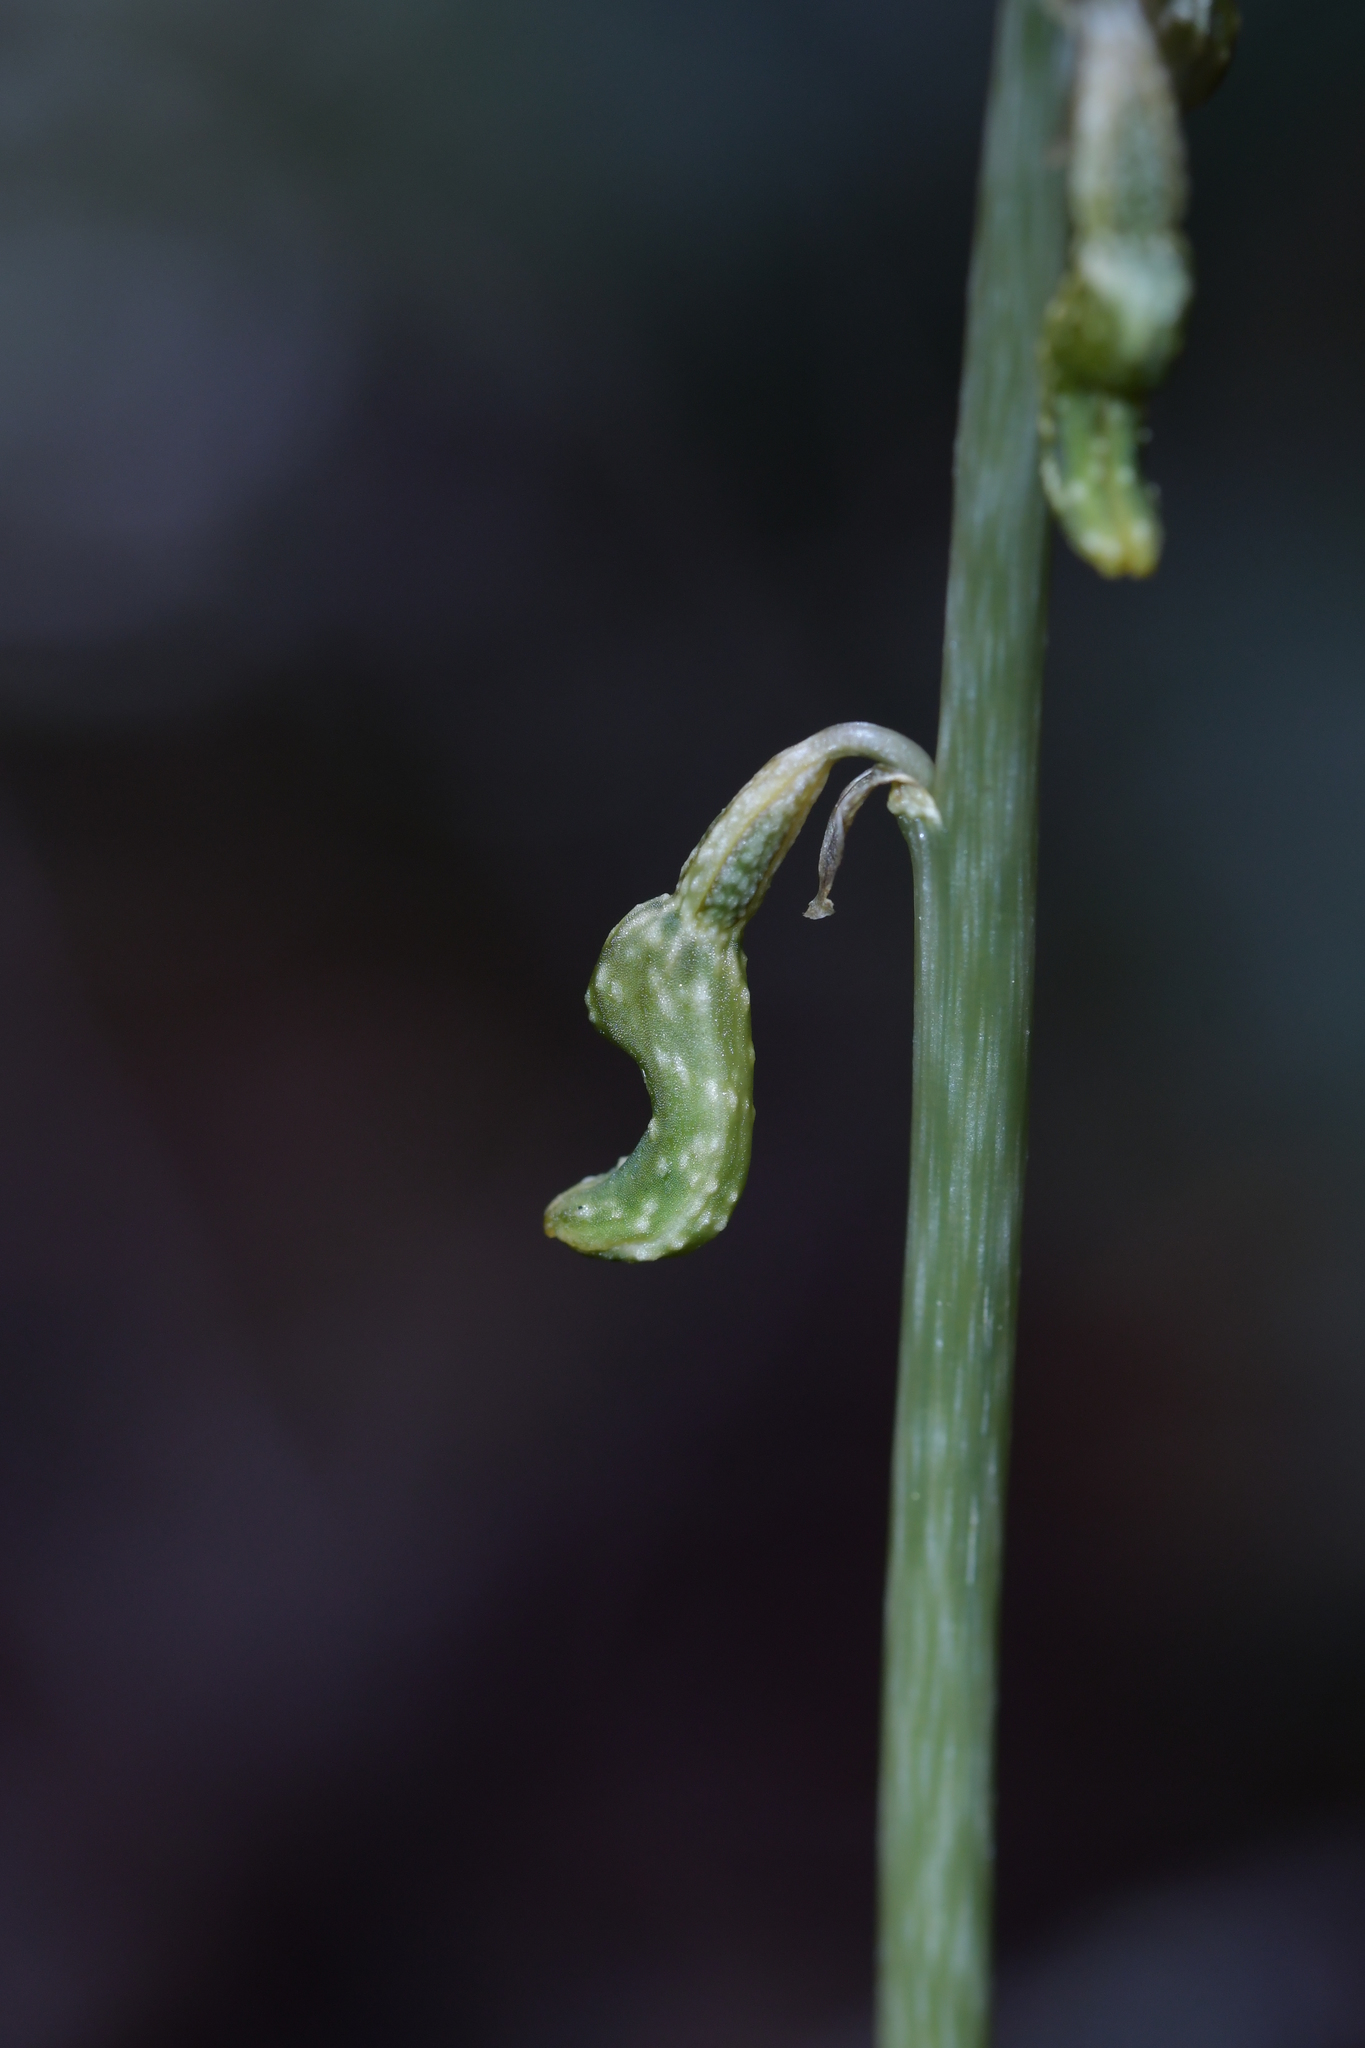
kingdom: Plantae
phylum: Tracheophyta
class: Liliopsida
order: Asparagales
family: Orchidaceae
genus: Gastrodia
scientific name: Gastrodia cunninghamii
